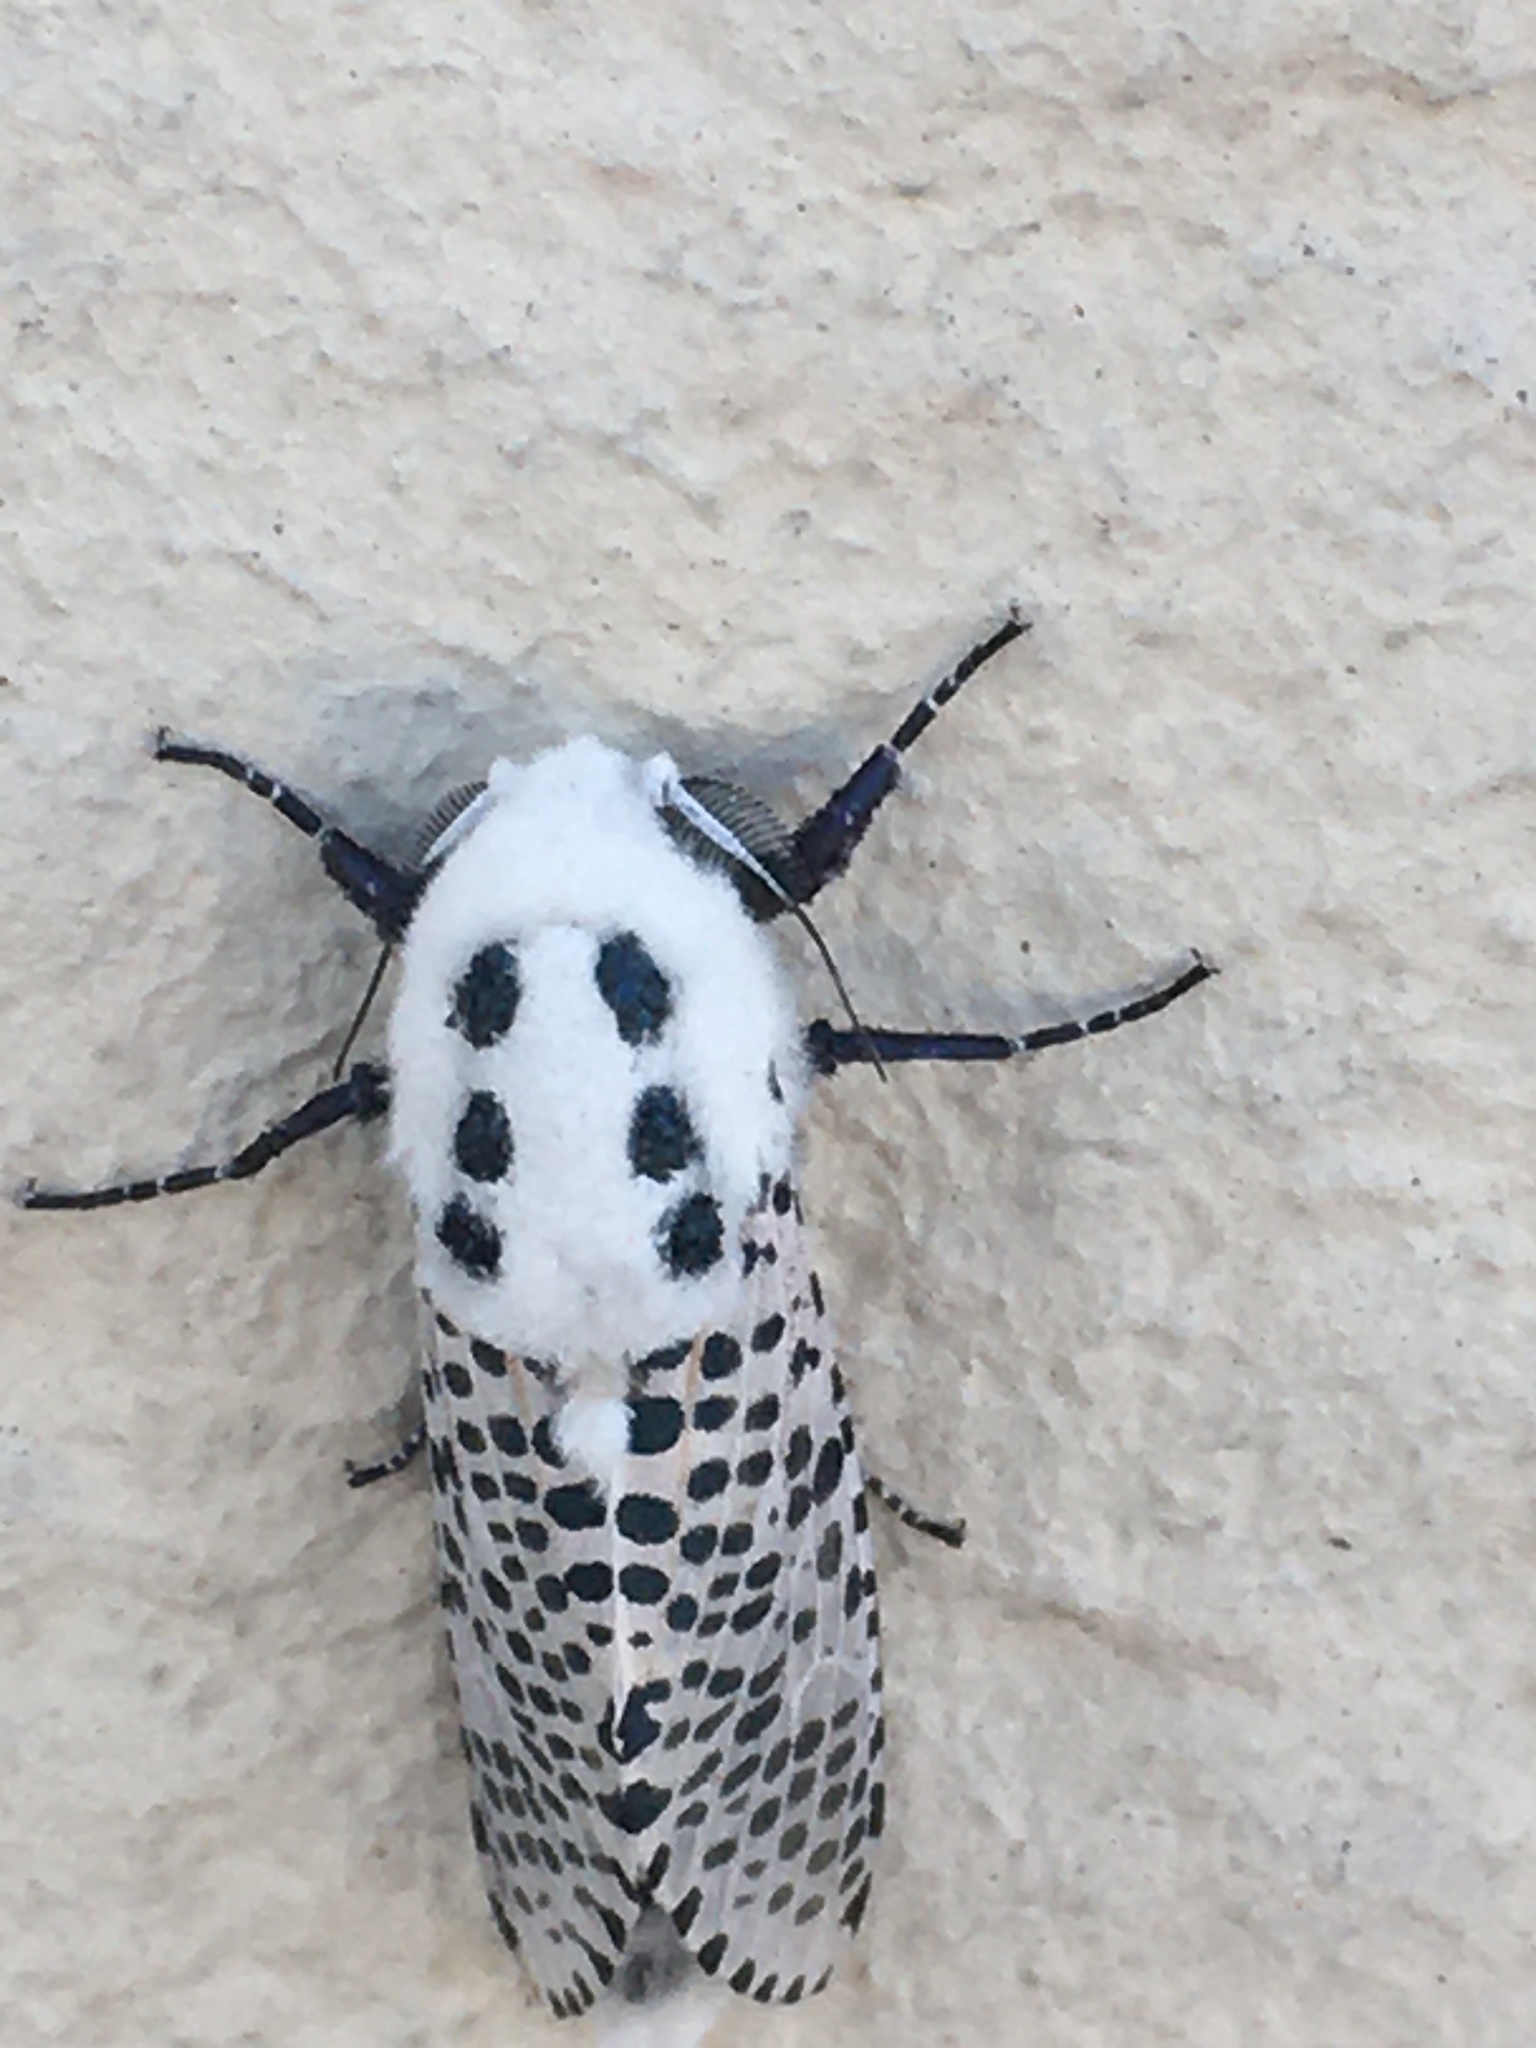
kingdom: Animalia
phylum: Arthropoda
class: Insecta
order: Lepidoptera
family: Cossidae
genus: Zeuzera
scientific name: Zeuzera pyrina
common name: Leopard moth
